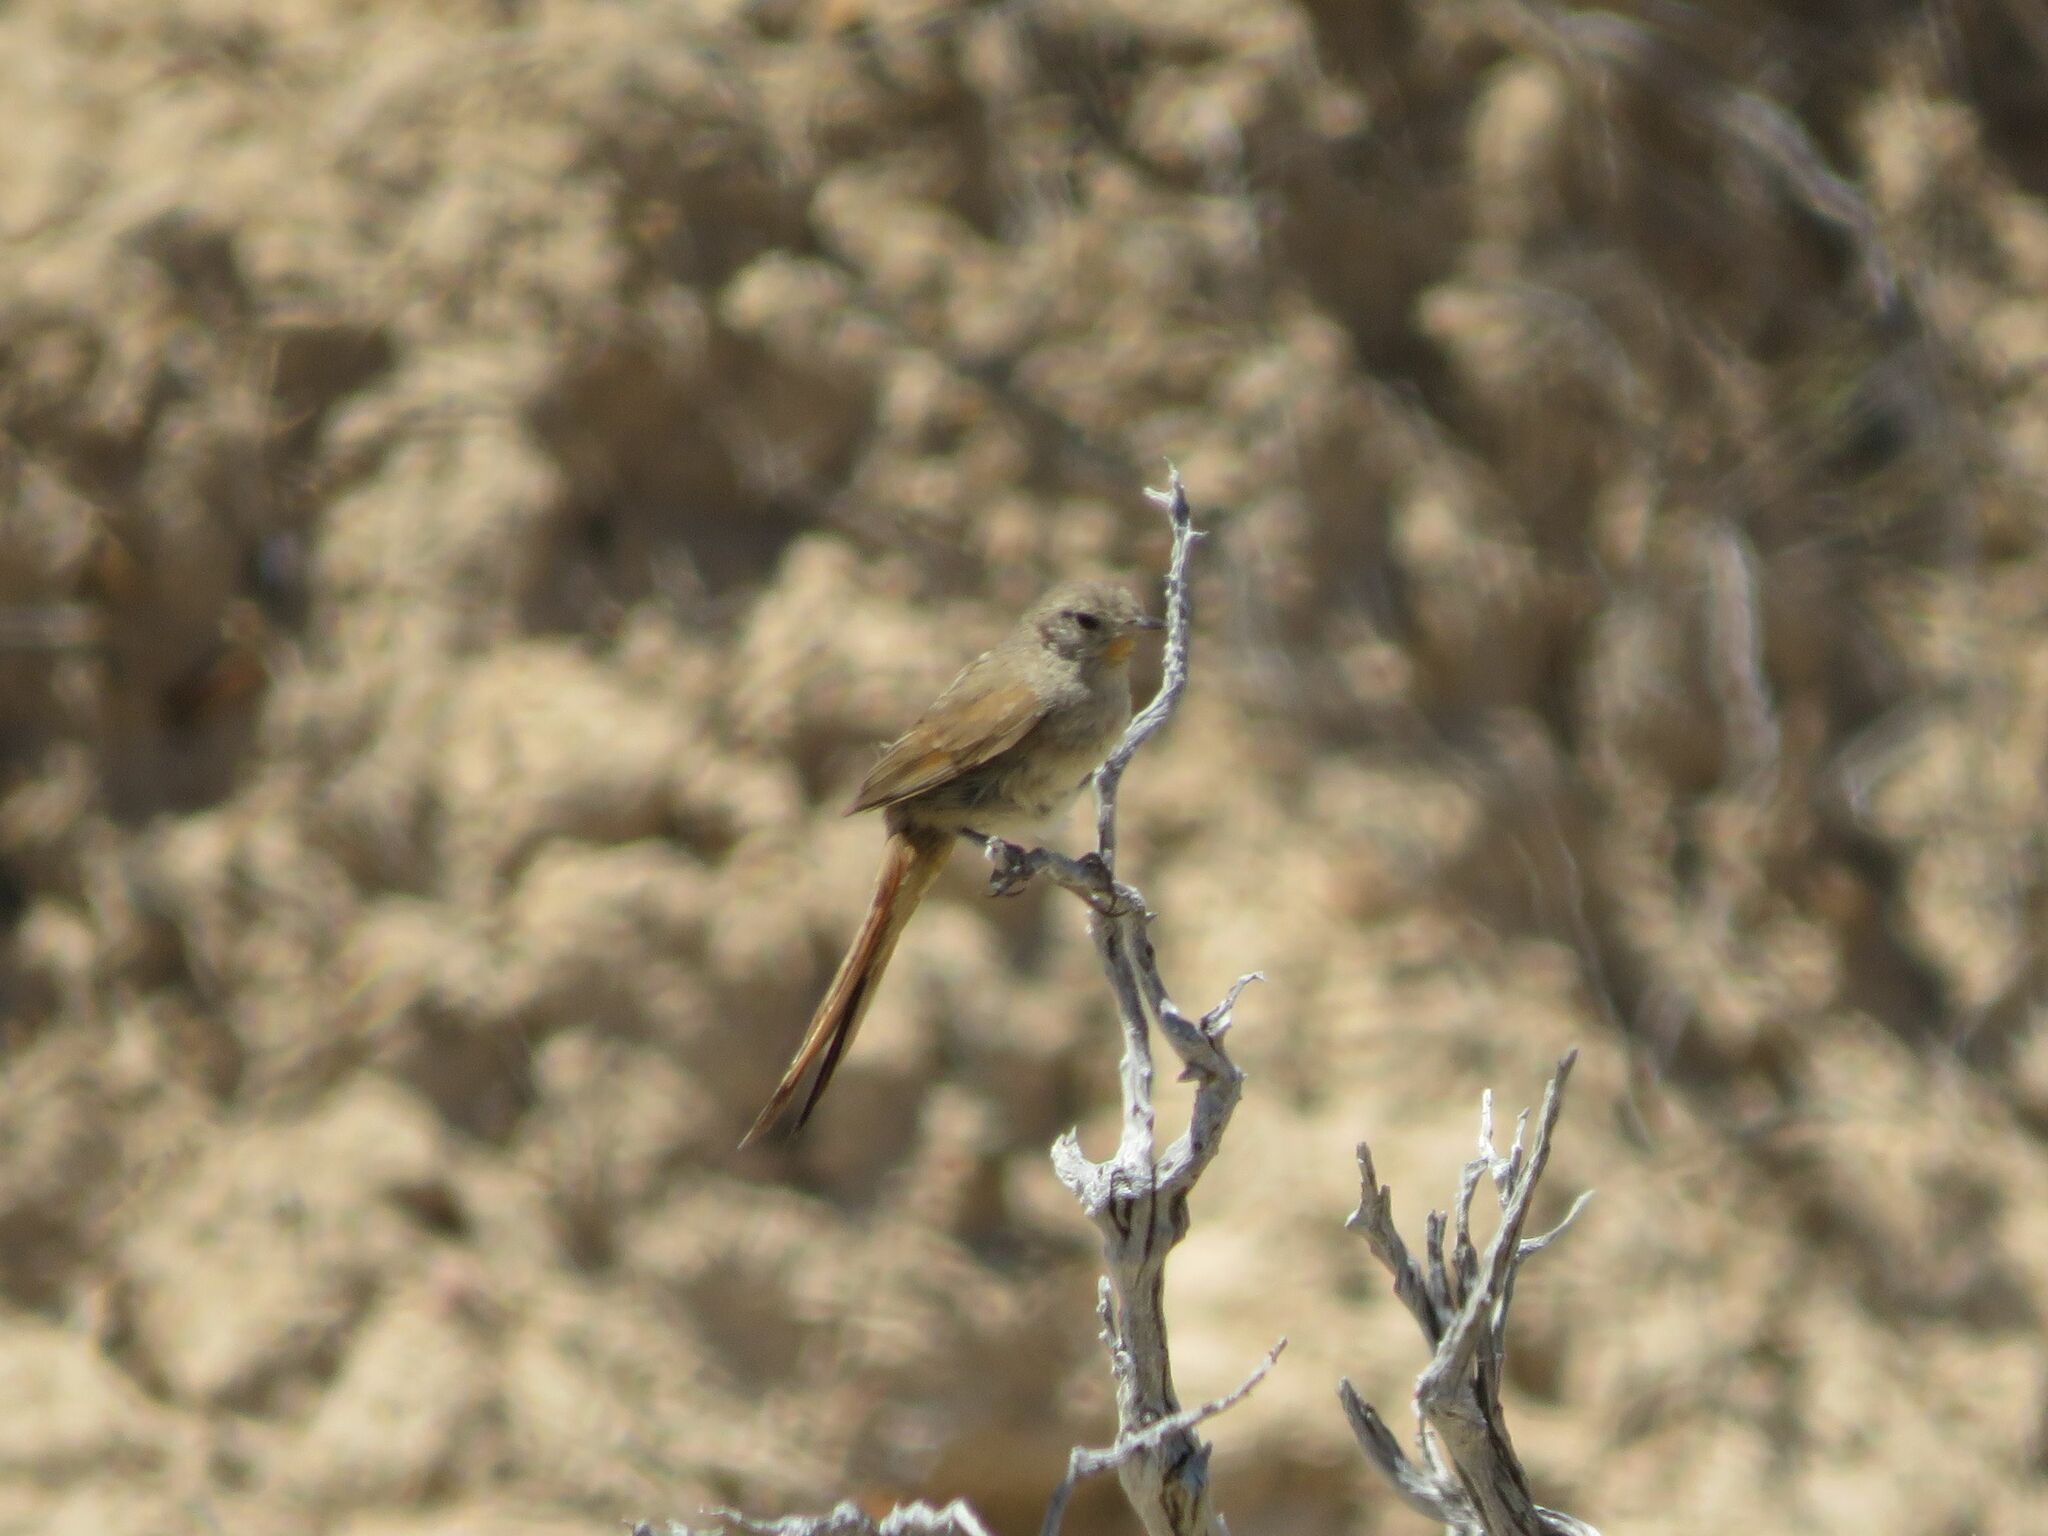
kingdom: Animalia
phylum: Chordata
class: Aves
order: Passeriformes
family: Furnariidae
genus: Asthenes
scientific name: Asthenes pyrrholeuca
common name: Sharp-billed canastero
